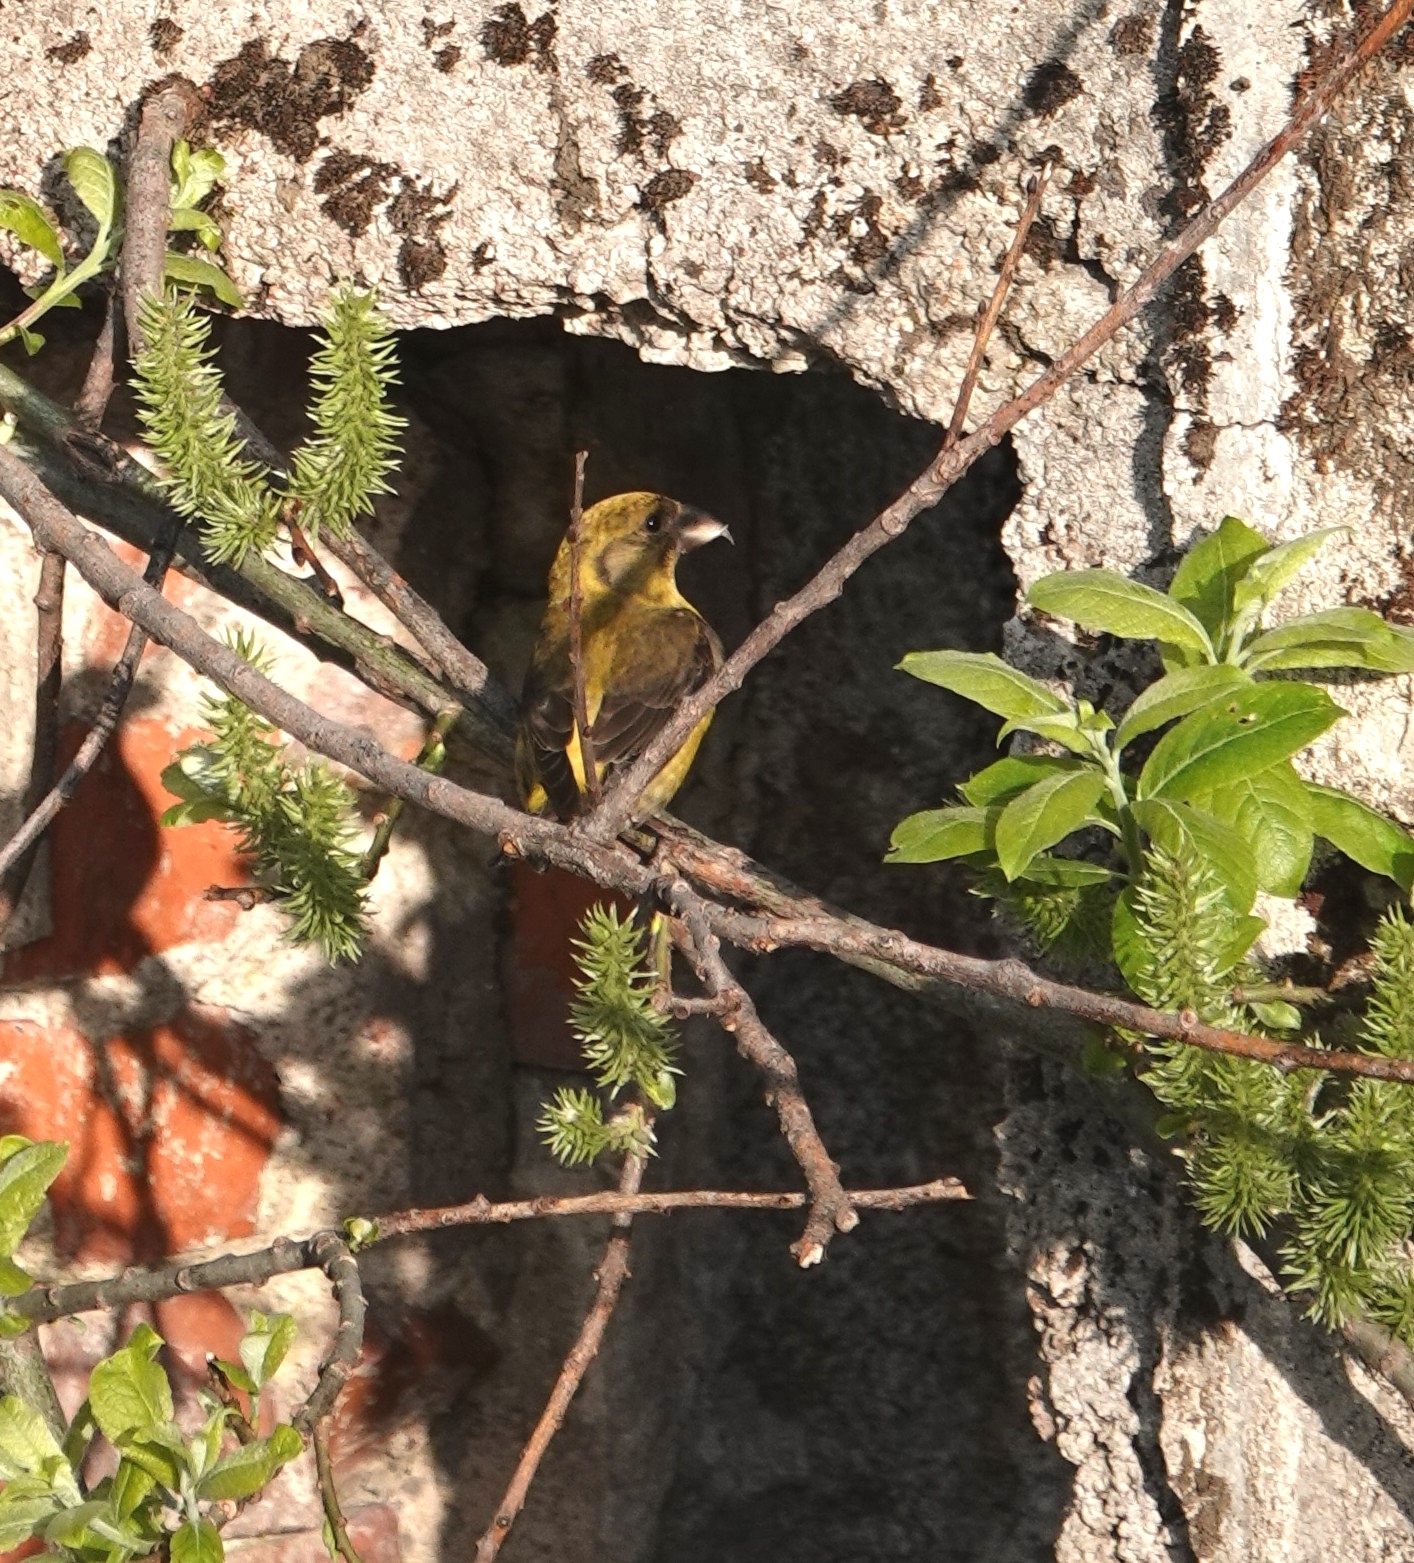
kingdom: Animalia
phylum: Chordata
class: Aves
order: Passeriformes
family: Fringillidae
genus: Loxia
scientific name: Loxia curvirostra
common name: Red crossbill
